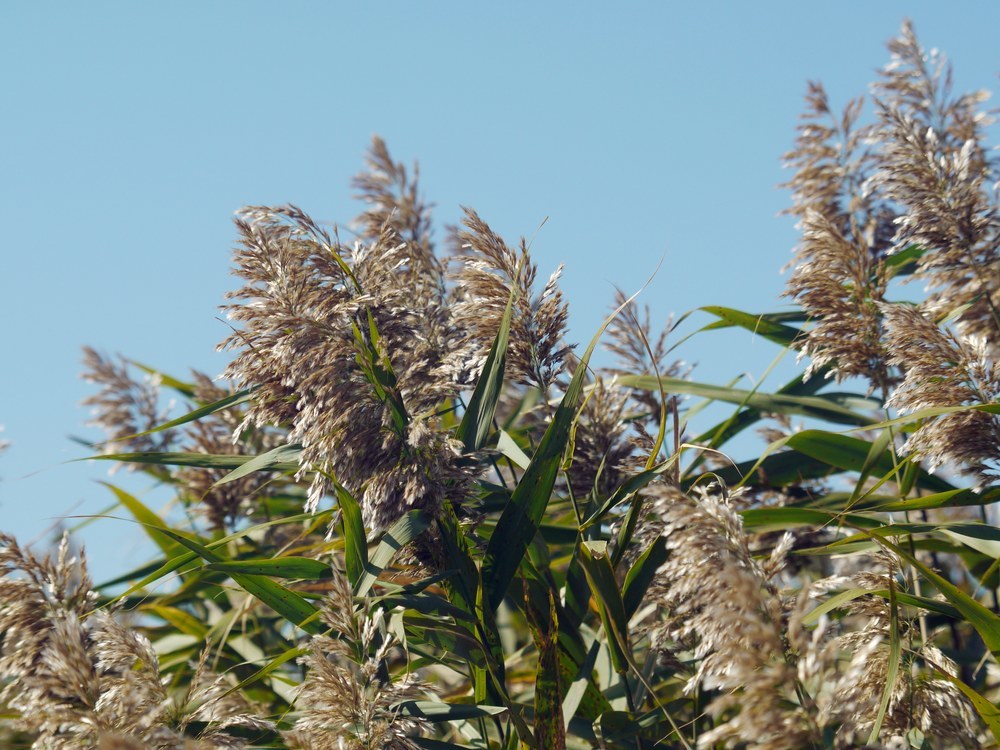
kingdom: Plantae
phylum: Tracheophyta
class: Liliopsida
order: Poales
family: Poaceae
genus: Phragmites
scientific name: Phragmites australis
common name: Common reed
